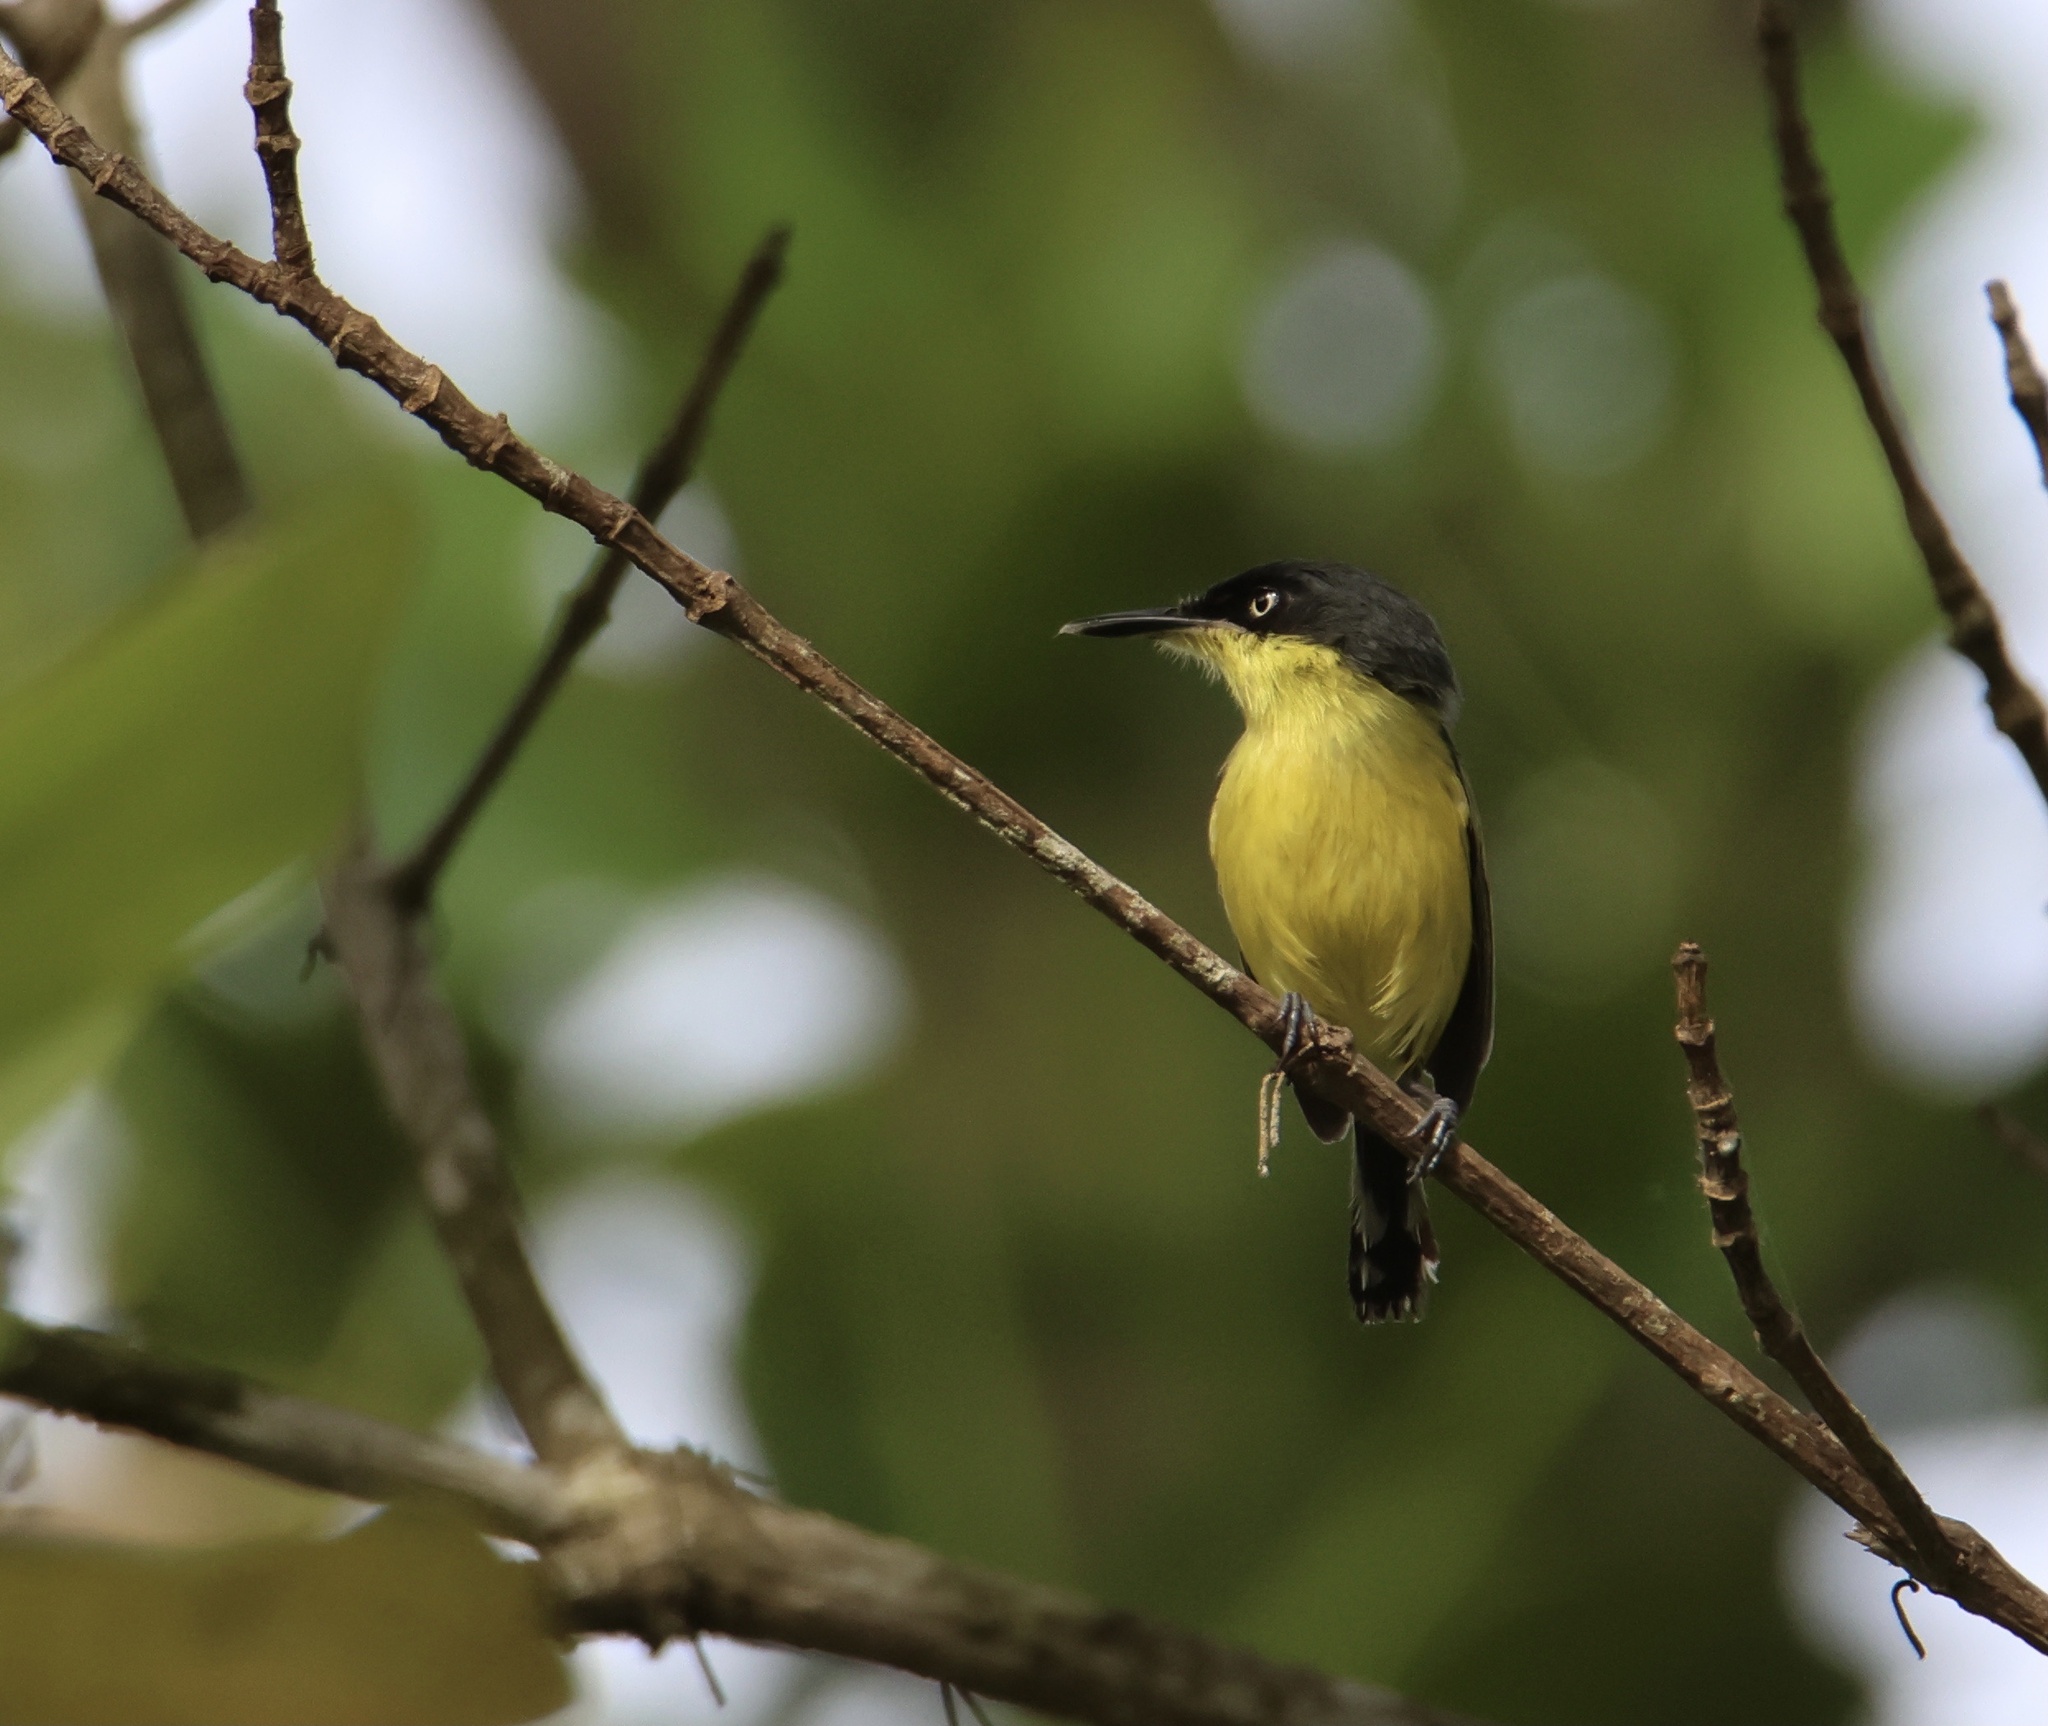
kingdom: Animalia
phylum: Chordata
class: Aves
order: Passeriformes
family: Tyrannidae
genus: Todirostrum
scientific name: Todirostrum cinereum
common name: Common tody-flycatcher
